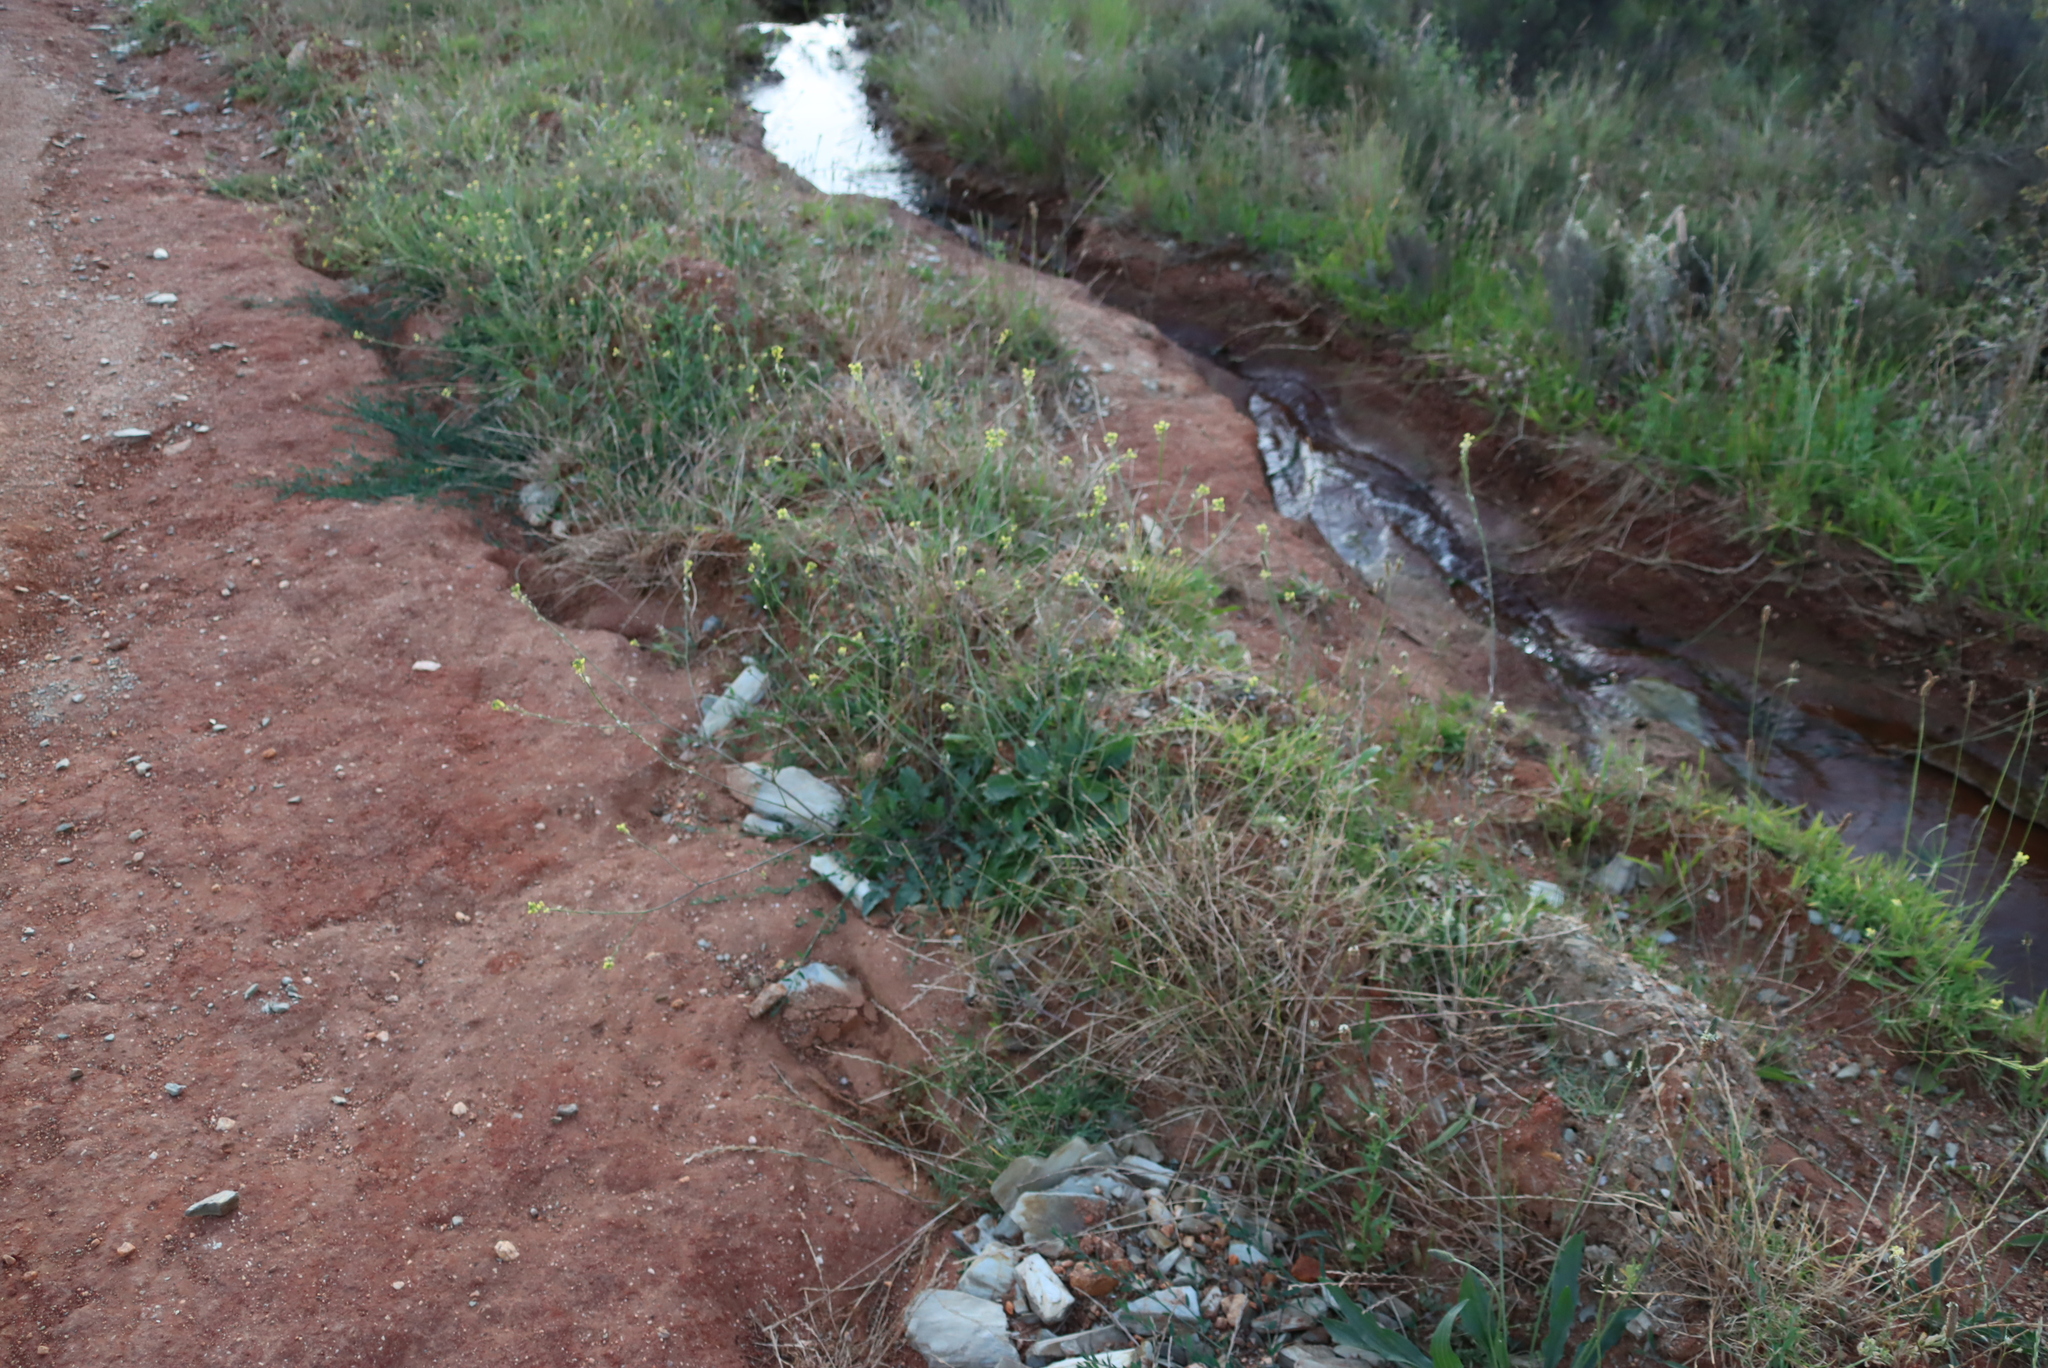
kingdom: Plantae
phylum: Tracheophyta
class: Magnoliopsida
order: Brassicales
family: Brassicaceae
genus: Hirschfeldia
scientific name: Hirschfeldia incana
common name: Hoary mustard
